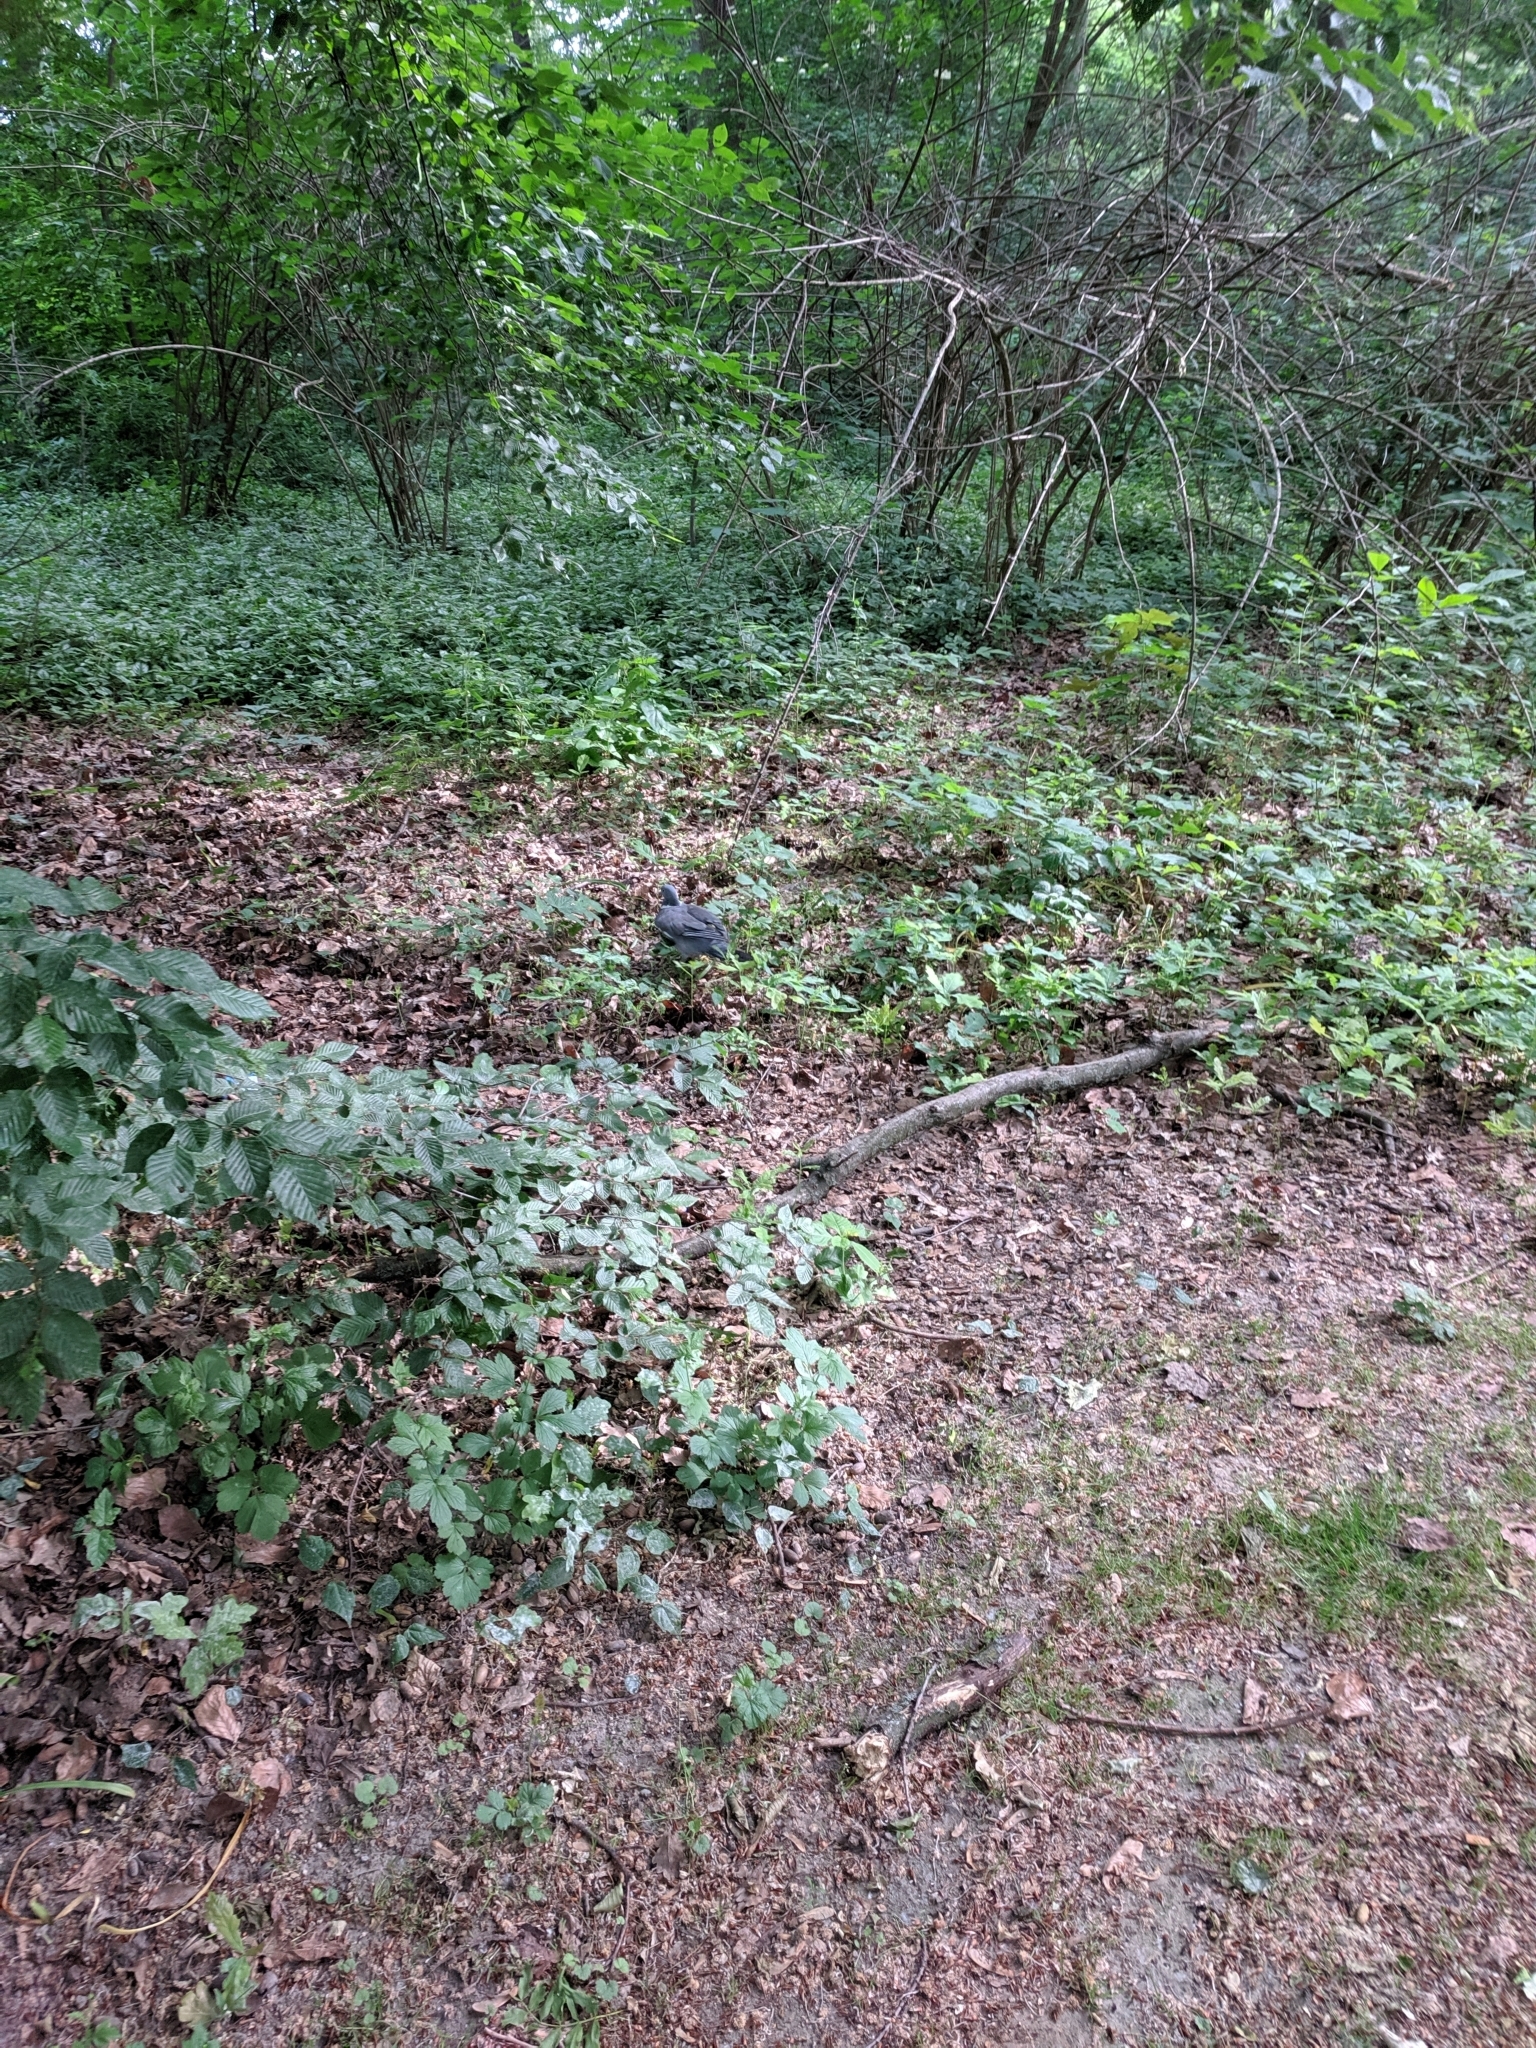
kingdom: Animalia
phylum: Chordata
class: Aves
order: Columbiformes
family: Columbidae
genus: Columba
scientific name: Columba palumbus
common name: Common wood pigeon
